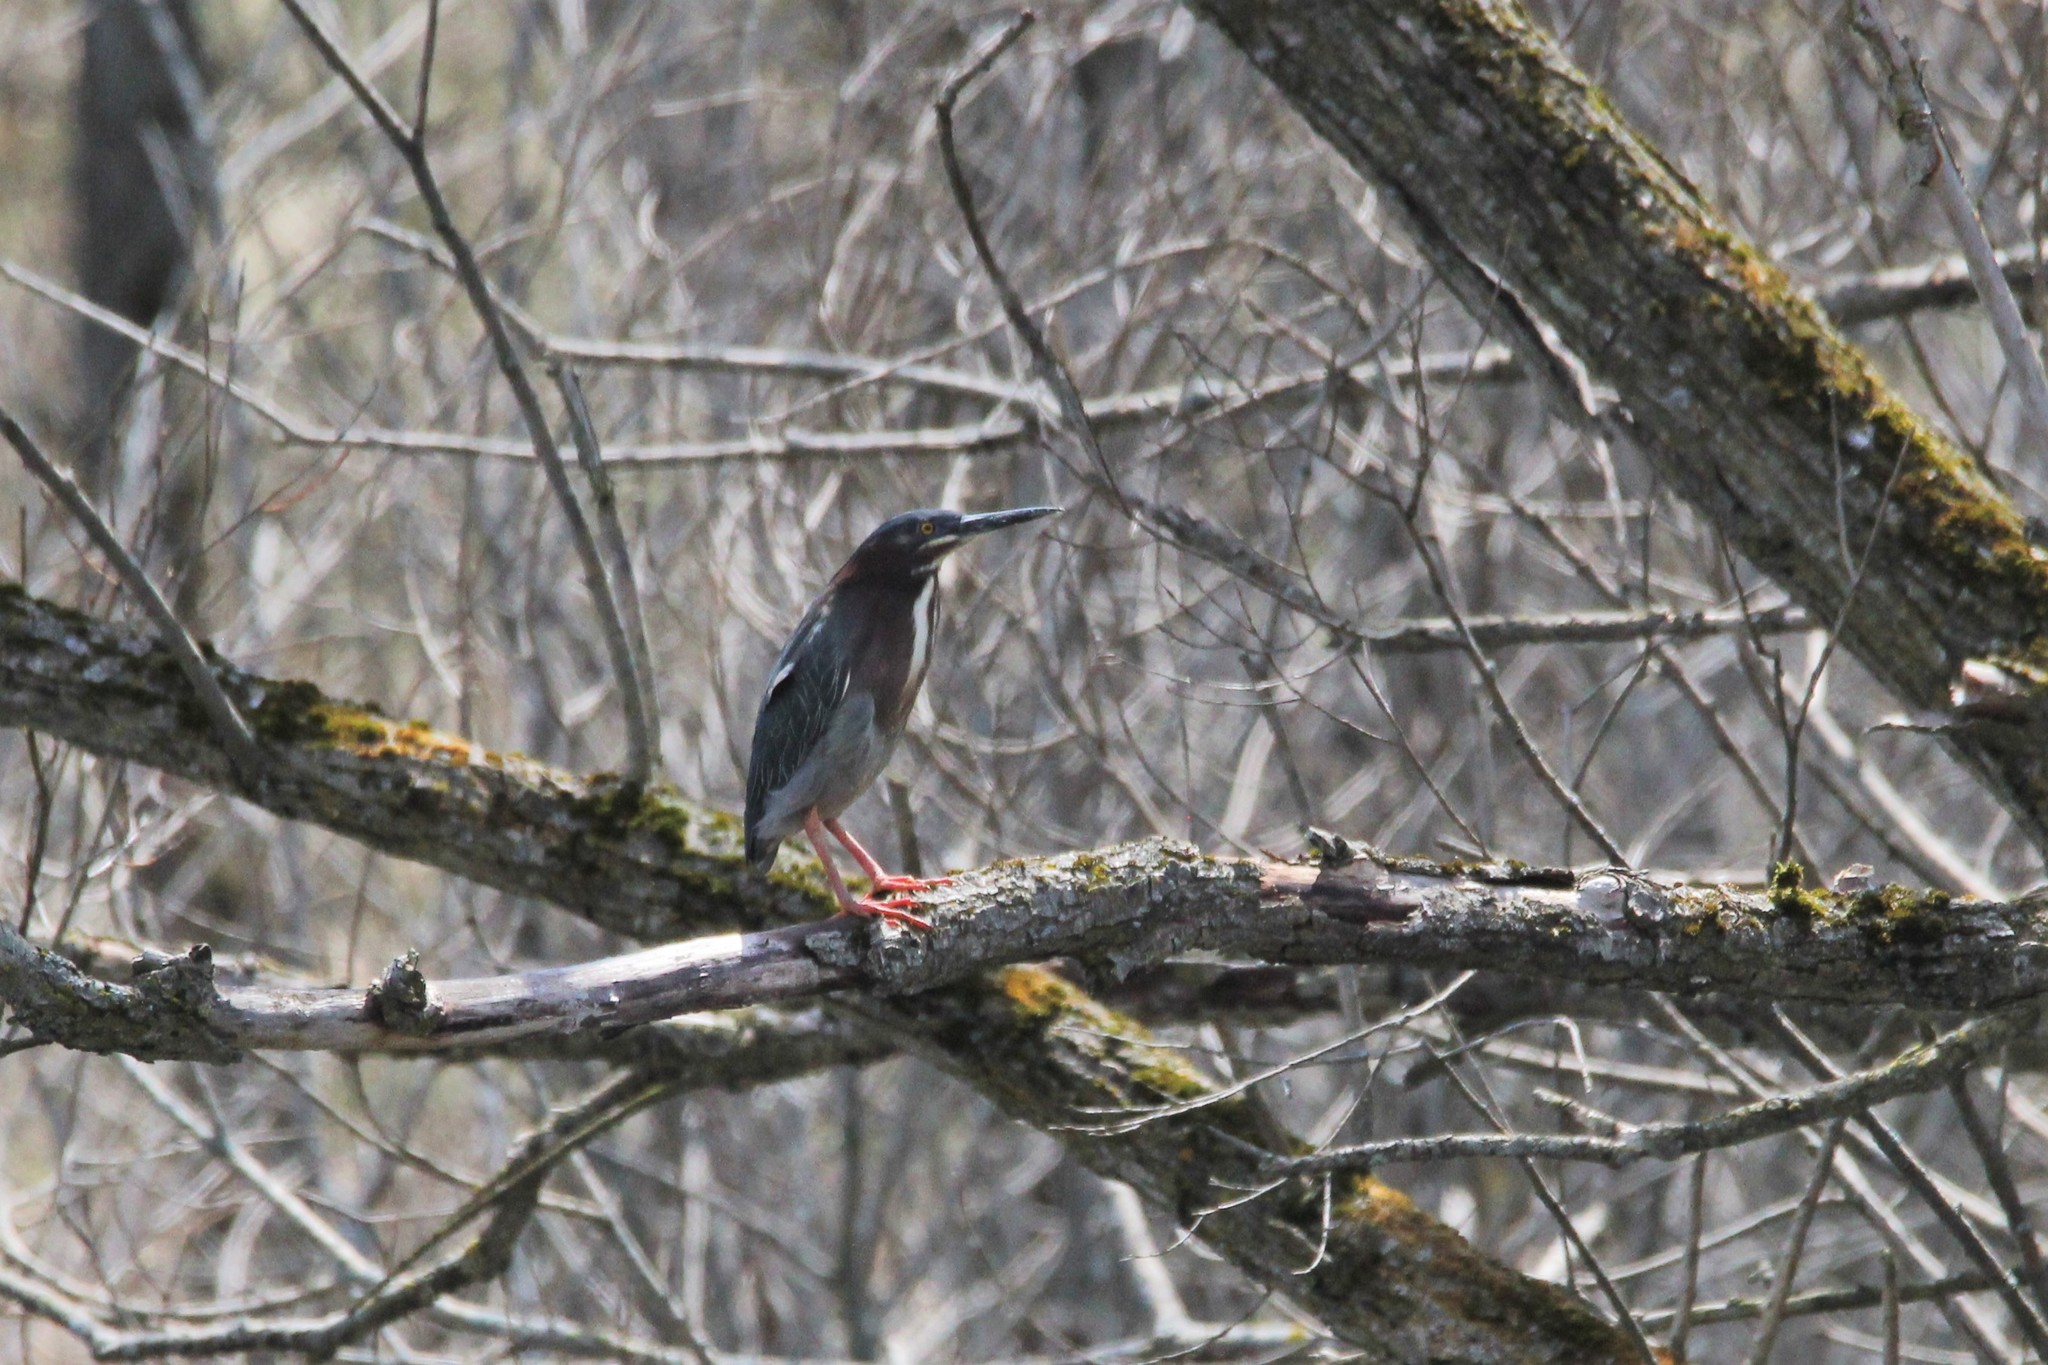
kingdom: Animalia
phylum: Chordata
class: Aves
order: Pelecaniformes
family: Ardeidae
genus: Butorides
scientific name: Butorides virescens
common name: Green heron
